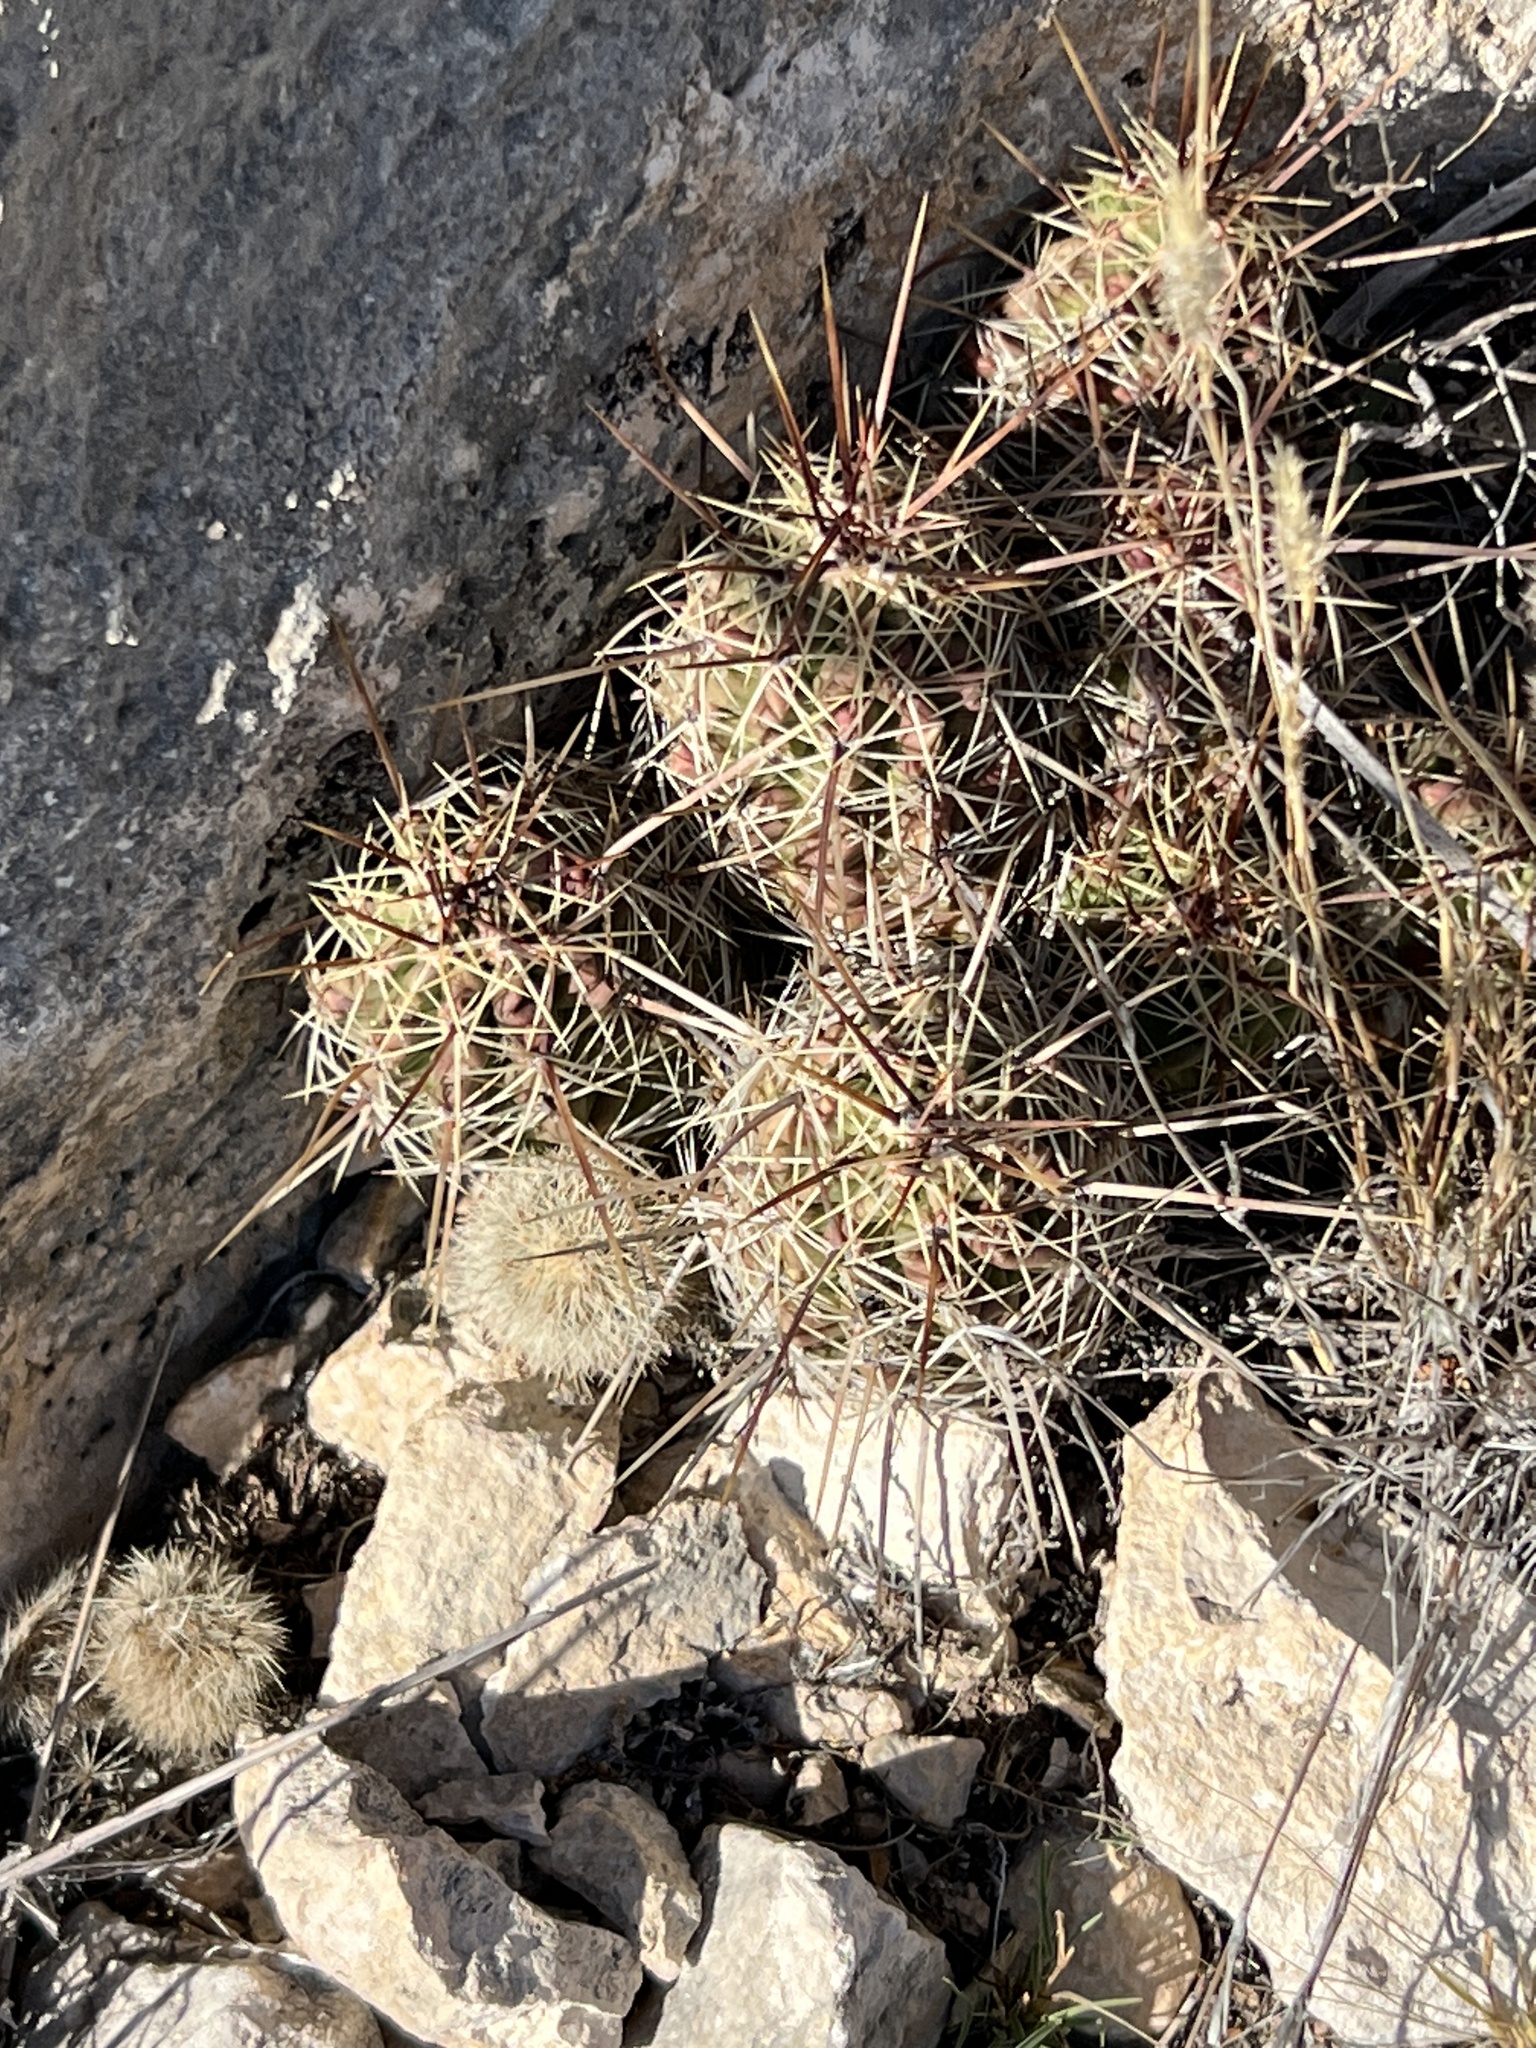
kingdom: Plantae
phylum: Tracheophyta
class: Magnoliopsida
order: Caryophyllales
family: Cactaceae
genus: Echinocereus
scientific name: Echinocereus enneacanthus
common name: Pitaya
